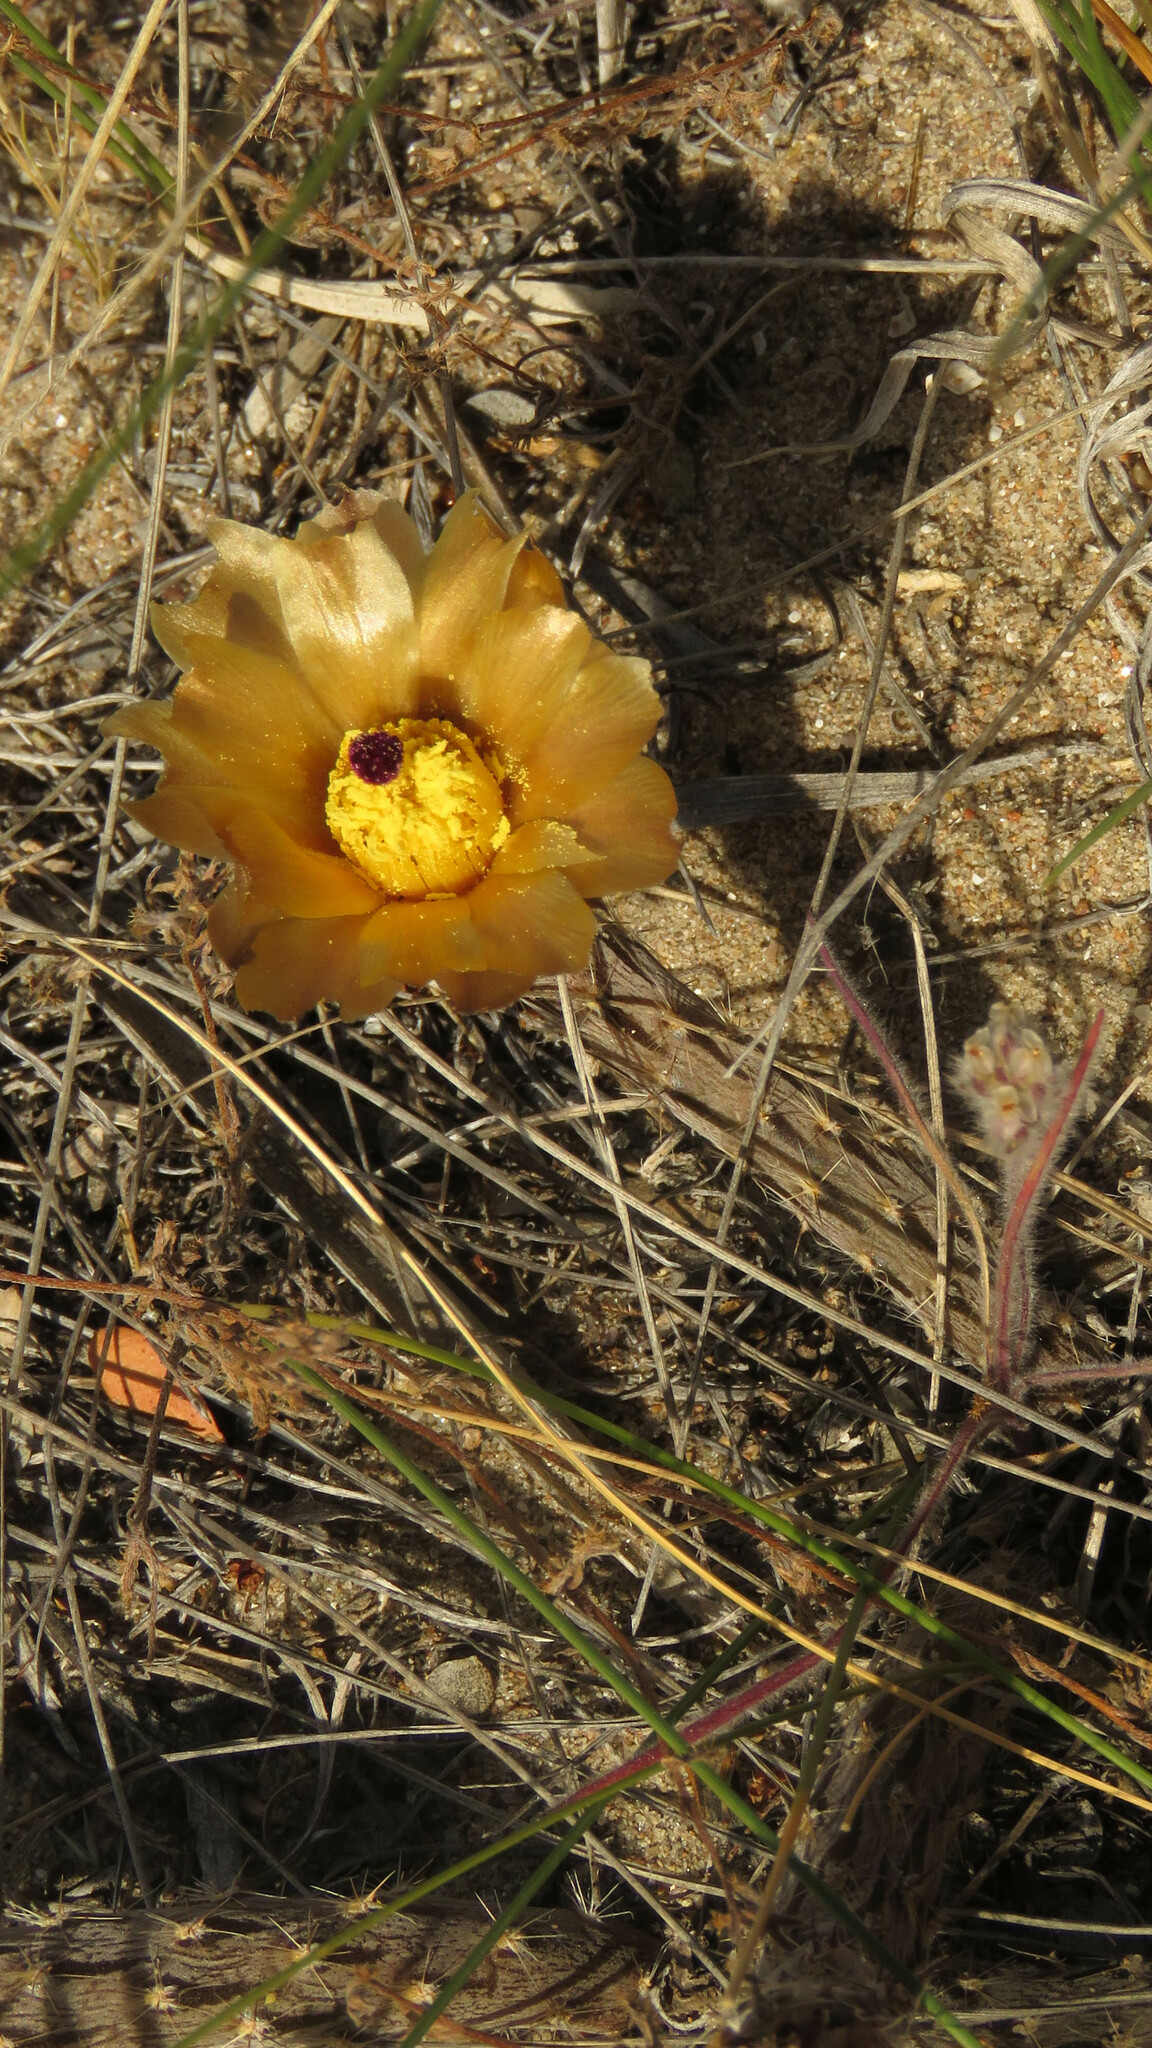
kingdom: Plantae
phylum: Tracheophyta
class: Magnoliopsida
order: Caryophyllales
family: Cactaceae
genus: Pterocactus
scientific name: Pterocactus tuberosus
